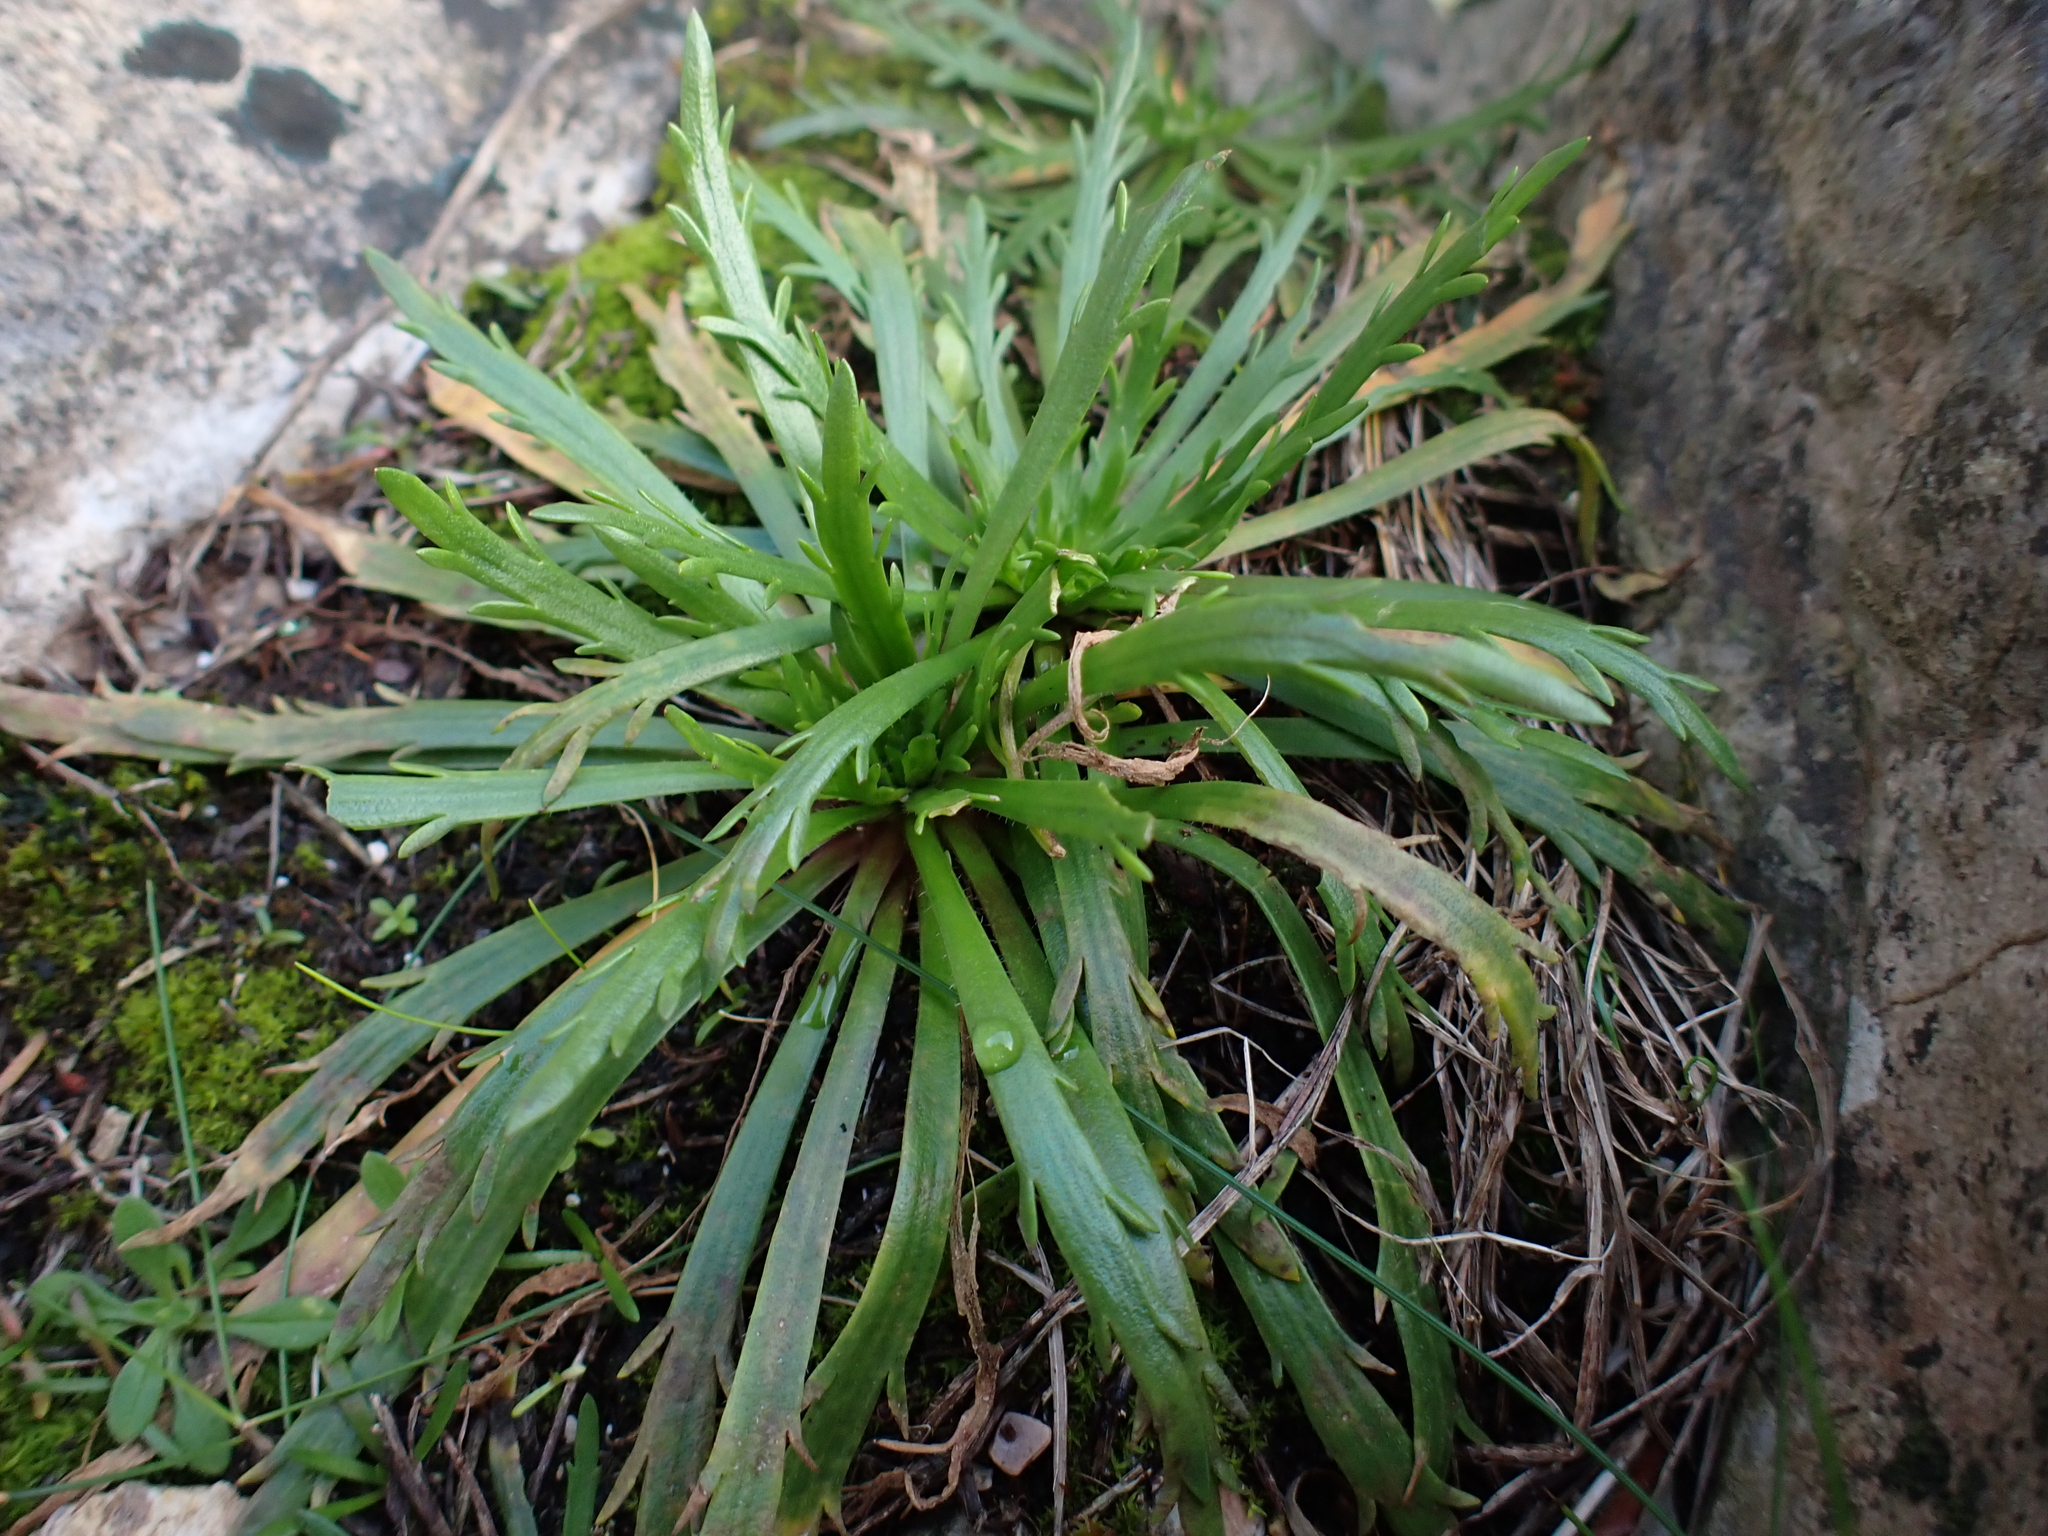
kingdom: Plantae
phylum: Tracheophyta
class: Magnoliopsida
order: Lamiales
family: Plantaginaceae
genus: Plantago
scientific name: Plantago coronopus
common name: Buck's-horn plantain
